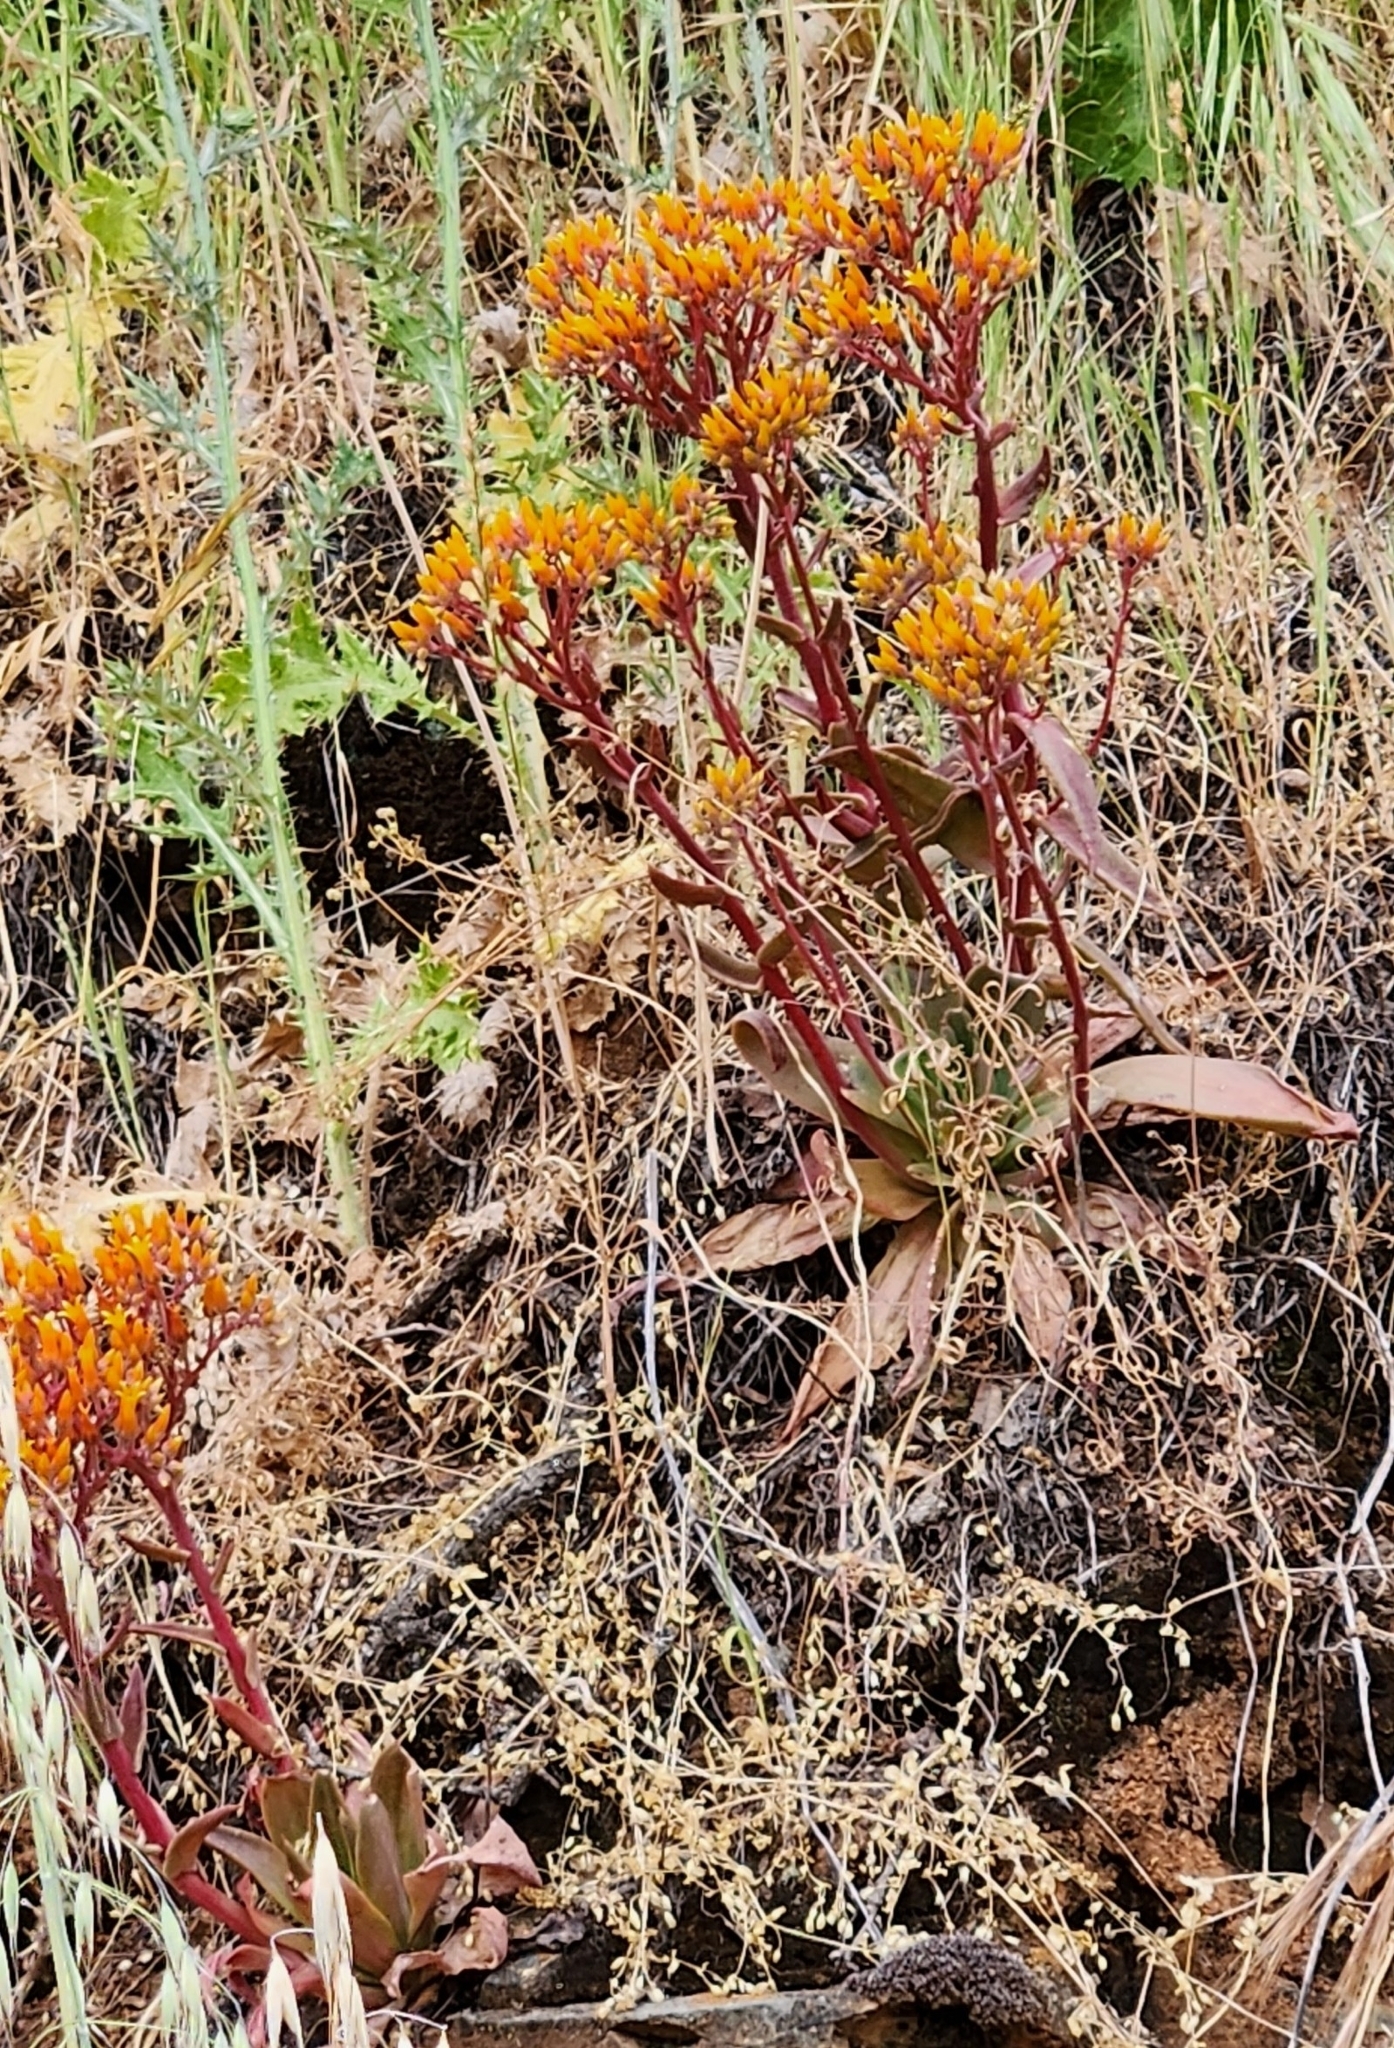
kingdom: Plantae
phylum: Tracheophyta
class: Magnoliopsida
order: Saxifragales
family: Crassulaceae
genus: Dudleya
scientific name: Dudleya cymosa
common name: Canyon dudleya
